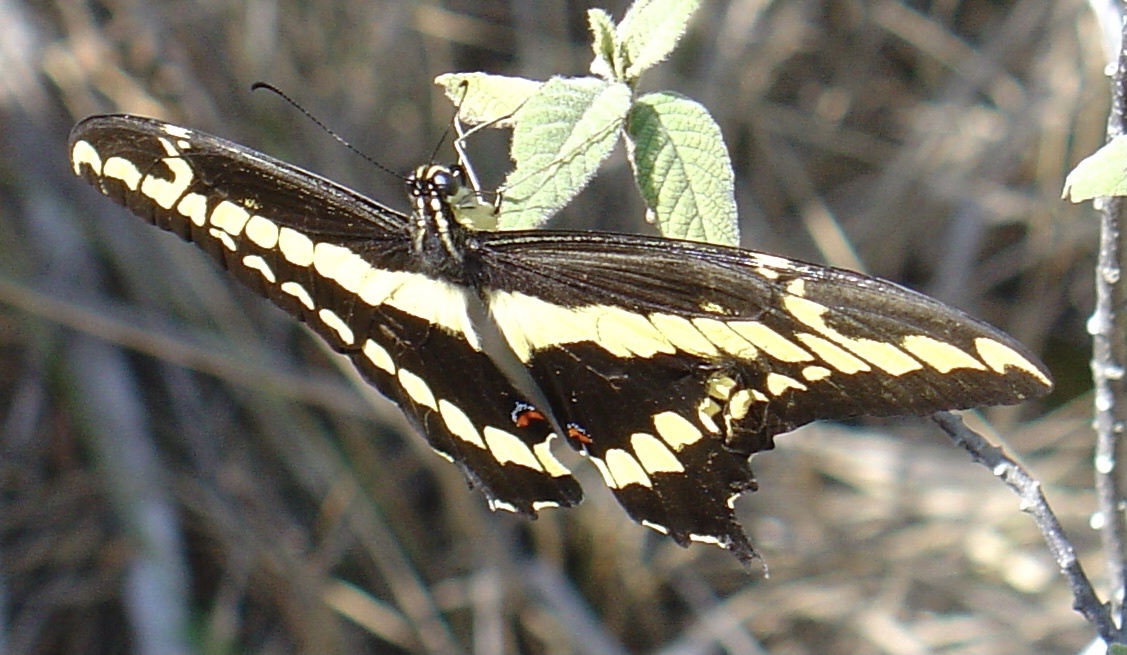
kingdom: Animalia
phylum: Arthropoda
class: Insecta
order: Lepidoptera
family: Papilionidae
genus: Papilio
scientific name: Papilio thoas
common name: King swallowtail
